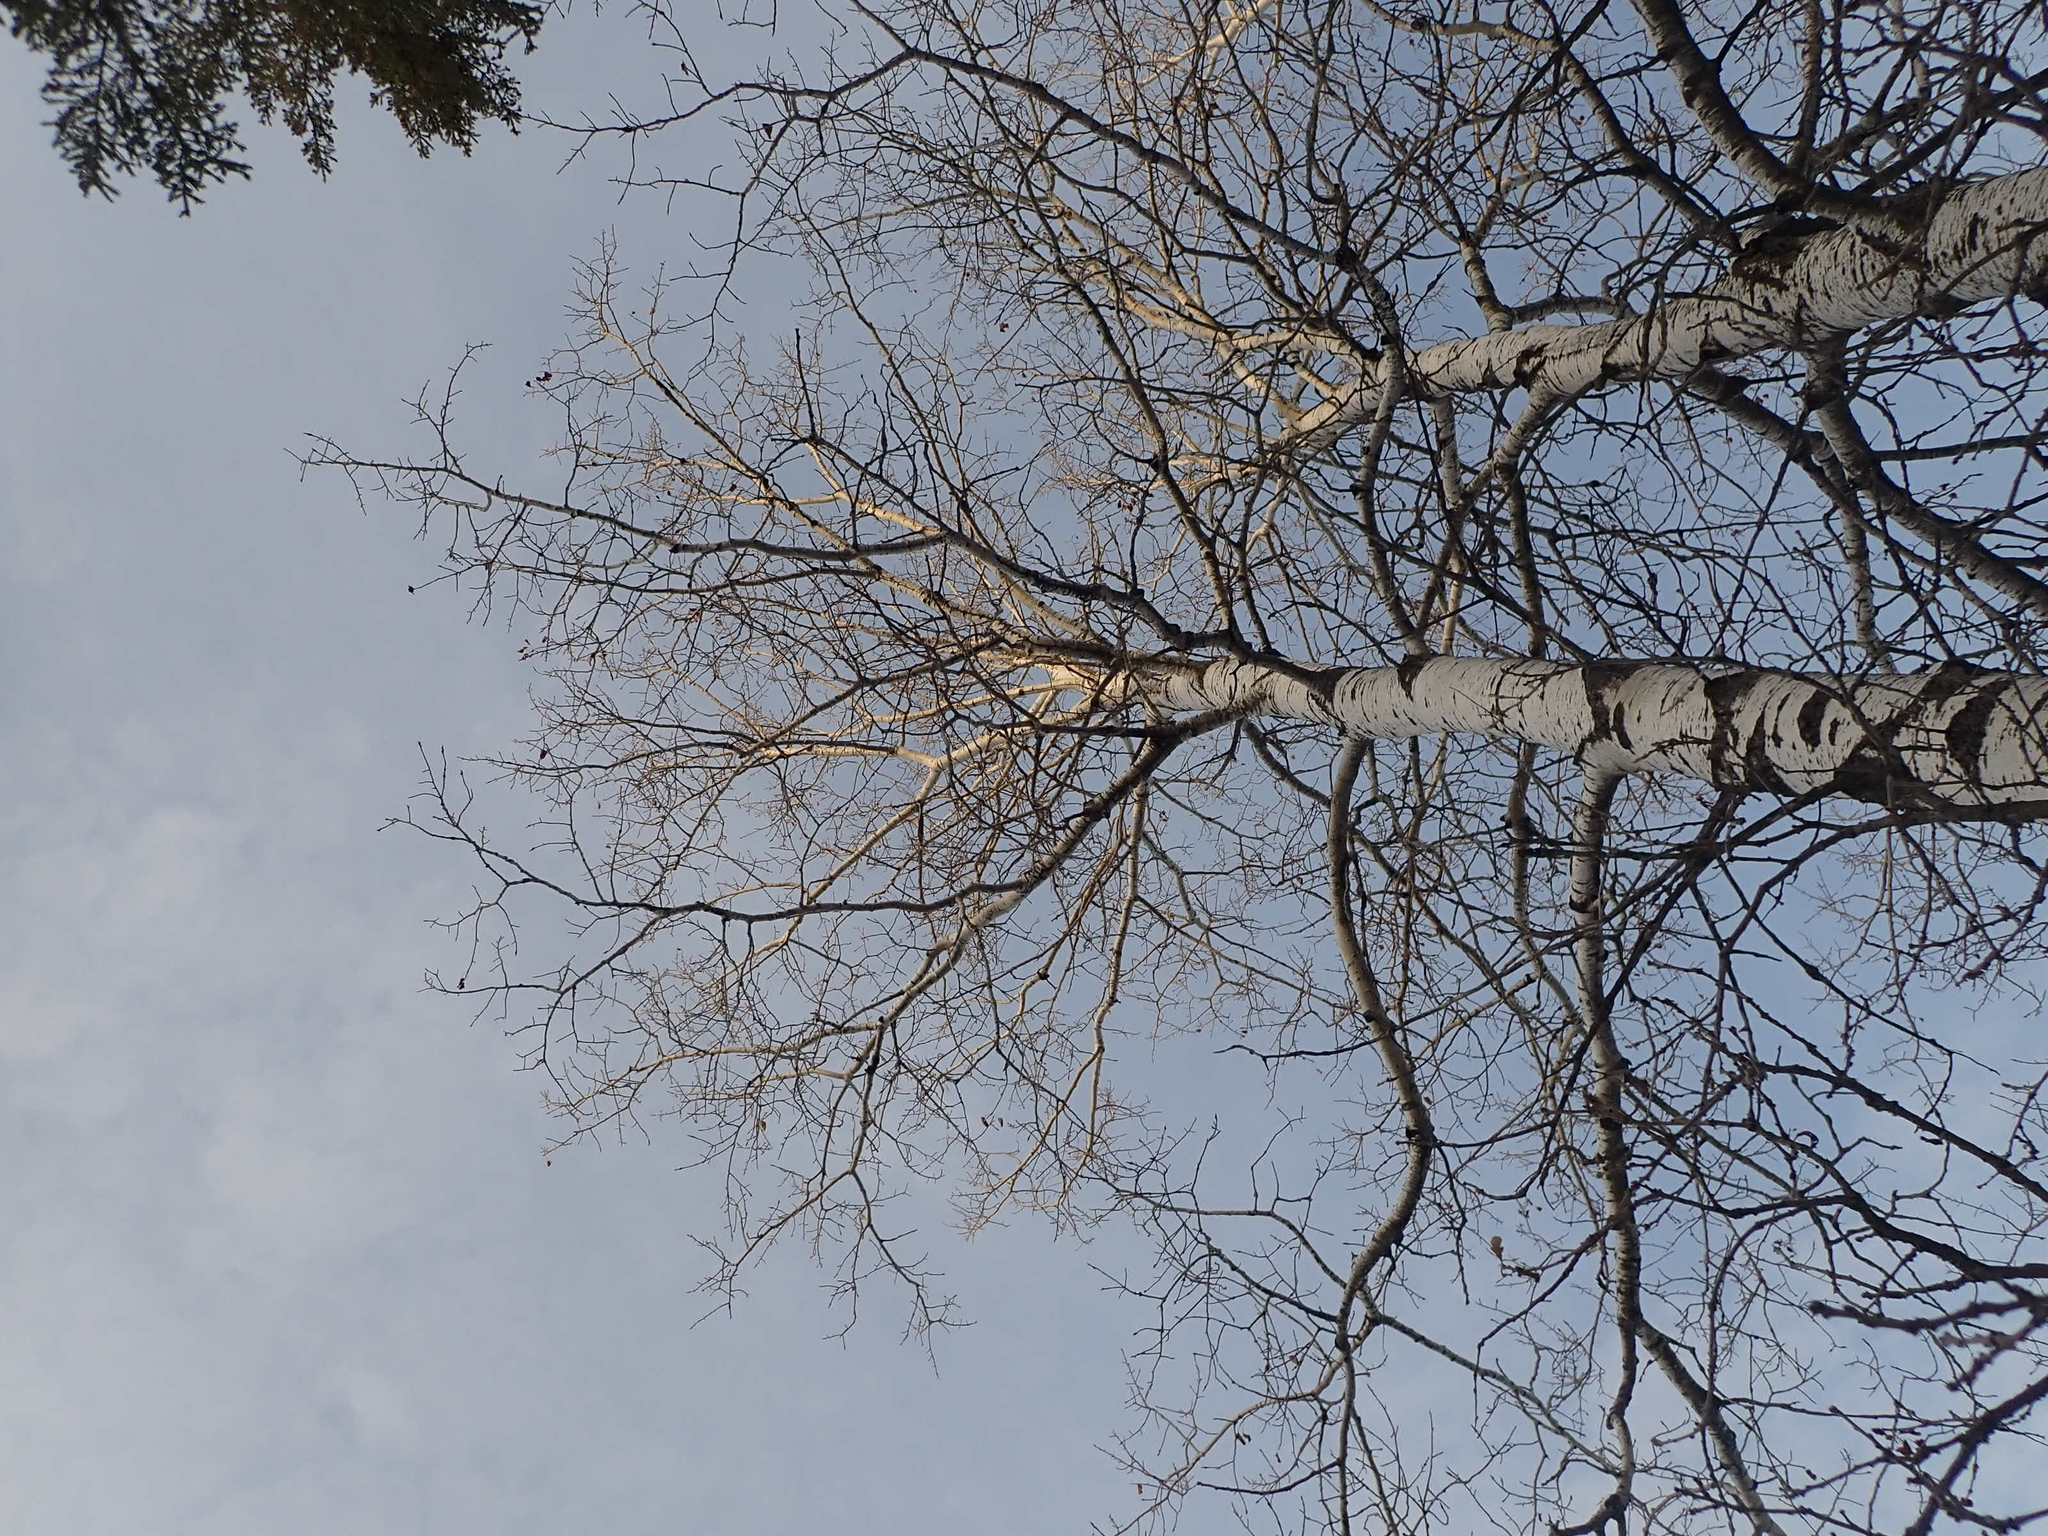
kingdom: Plantae
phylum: Tracheophyta
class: Magnoliopsida
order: Malpighiales
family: Salicaceae
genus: Populus
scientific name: Populus tremuloides
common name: Quaking aspen
